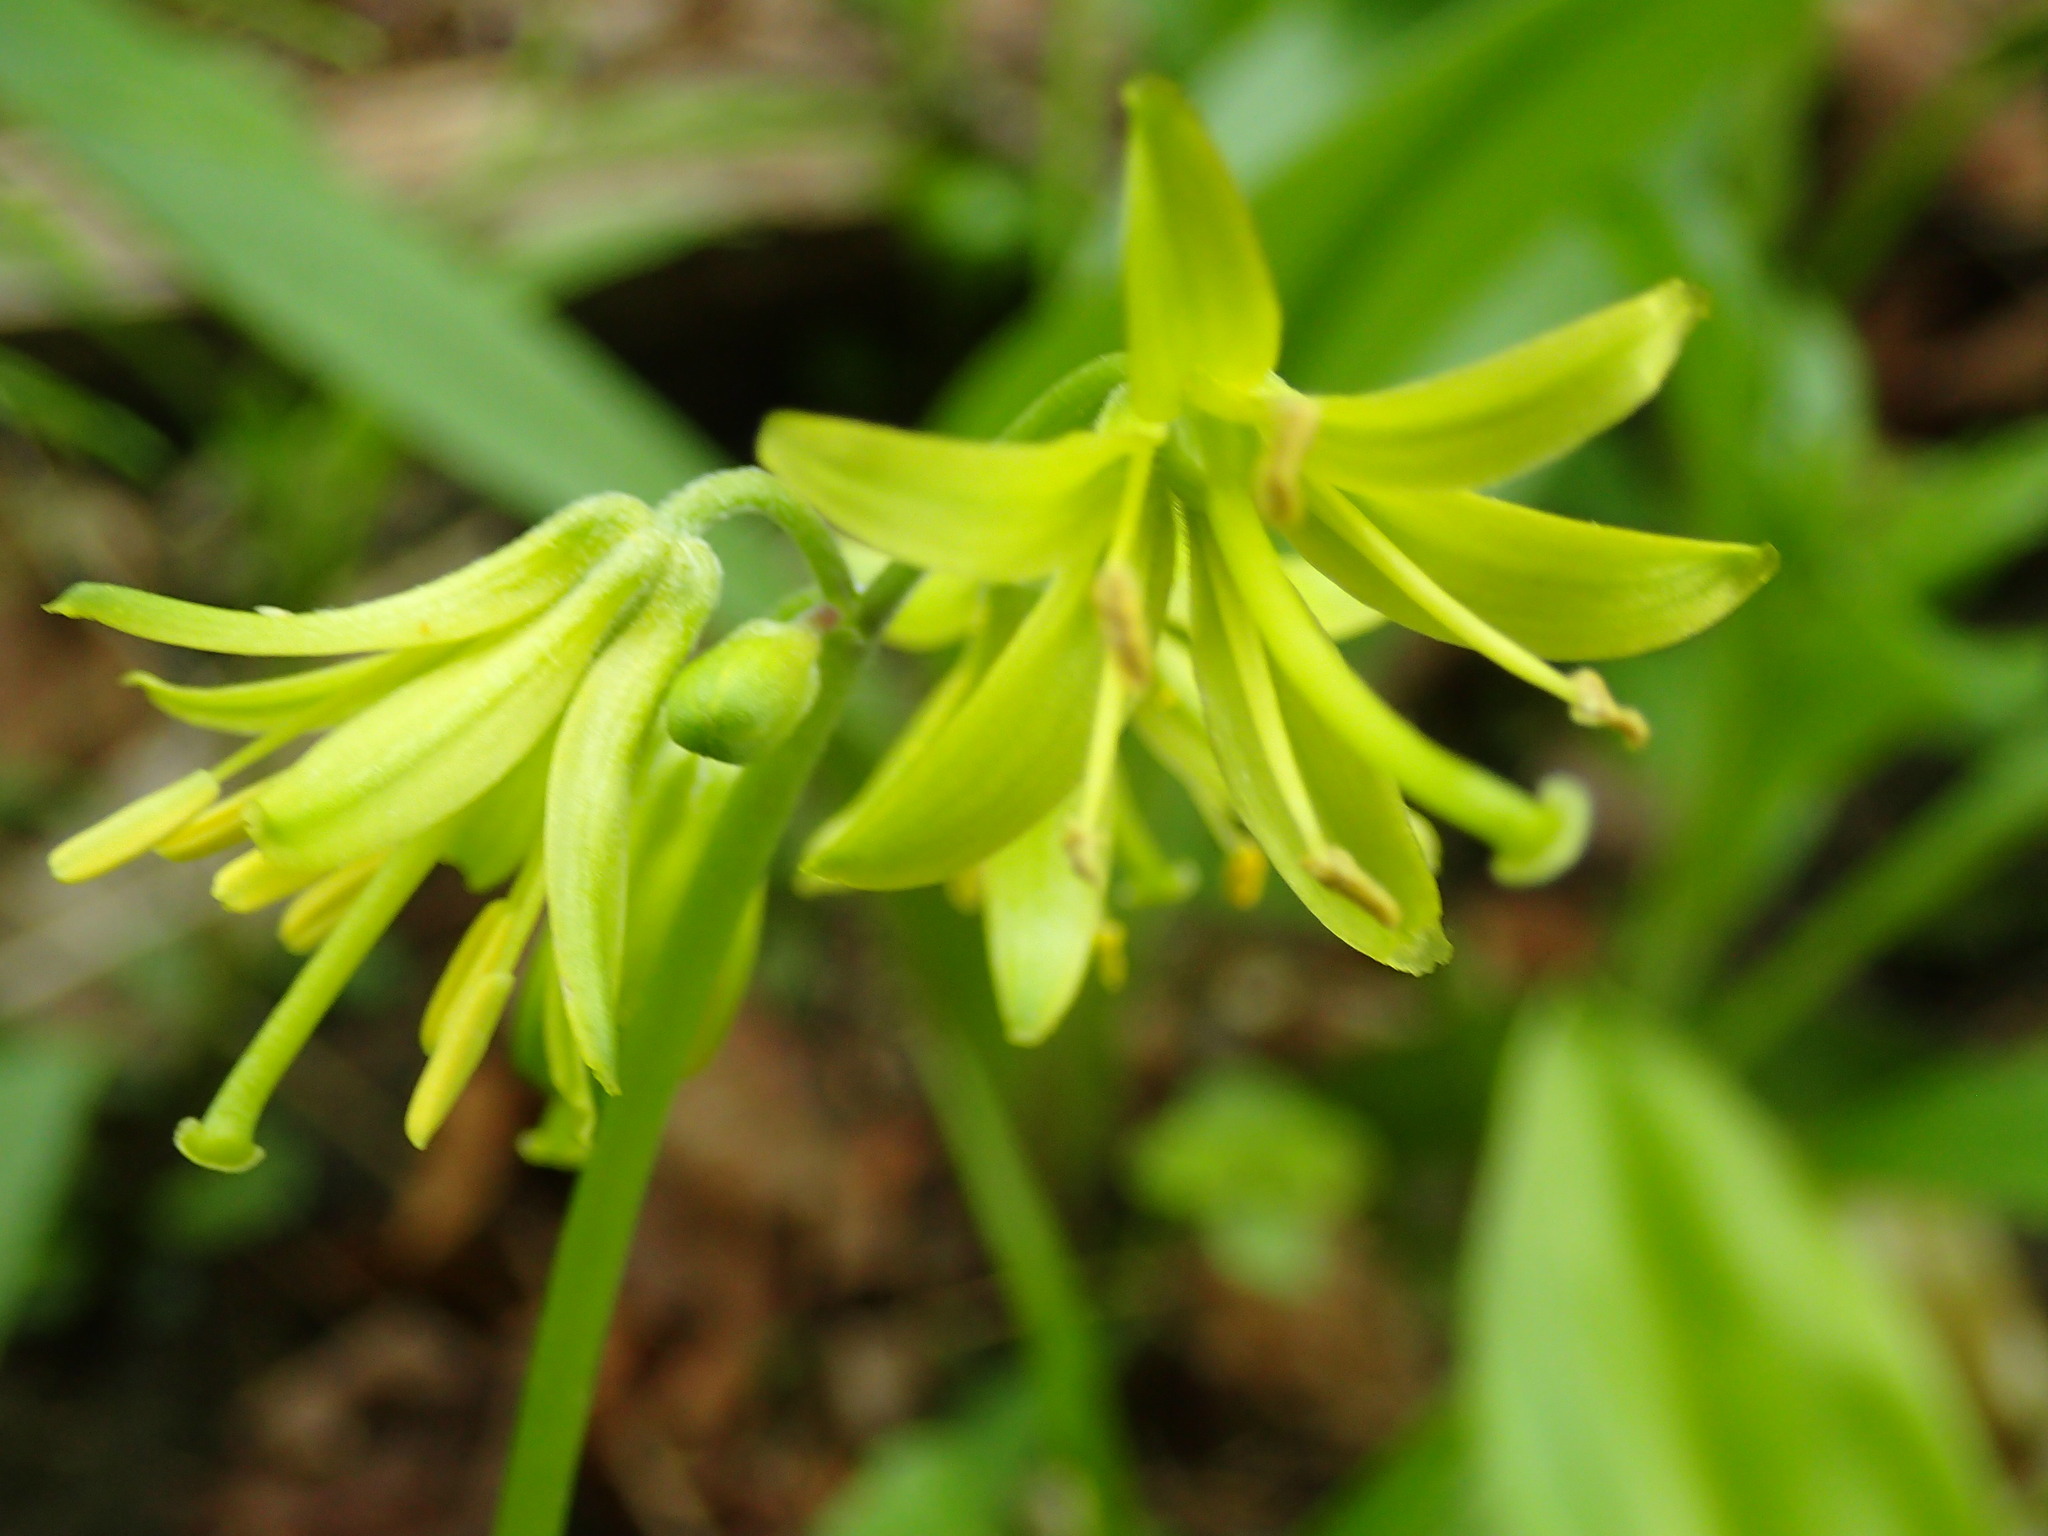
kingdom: Plantae
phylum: Tracheophyta
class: Liliopsida
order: Liliales
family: Liliaceae
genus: Clintonia
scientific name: Clintonia borealis
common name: Yellow clintonia
